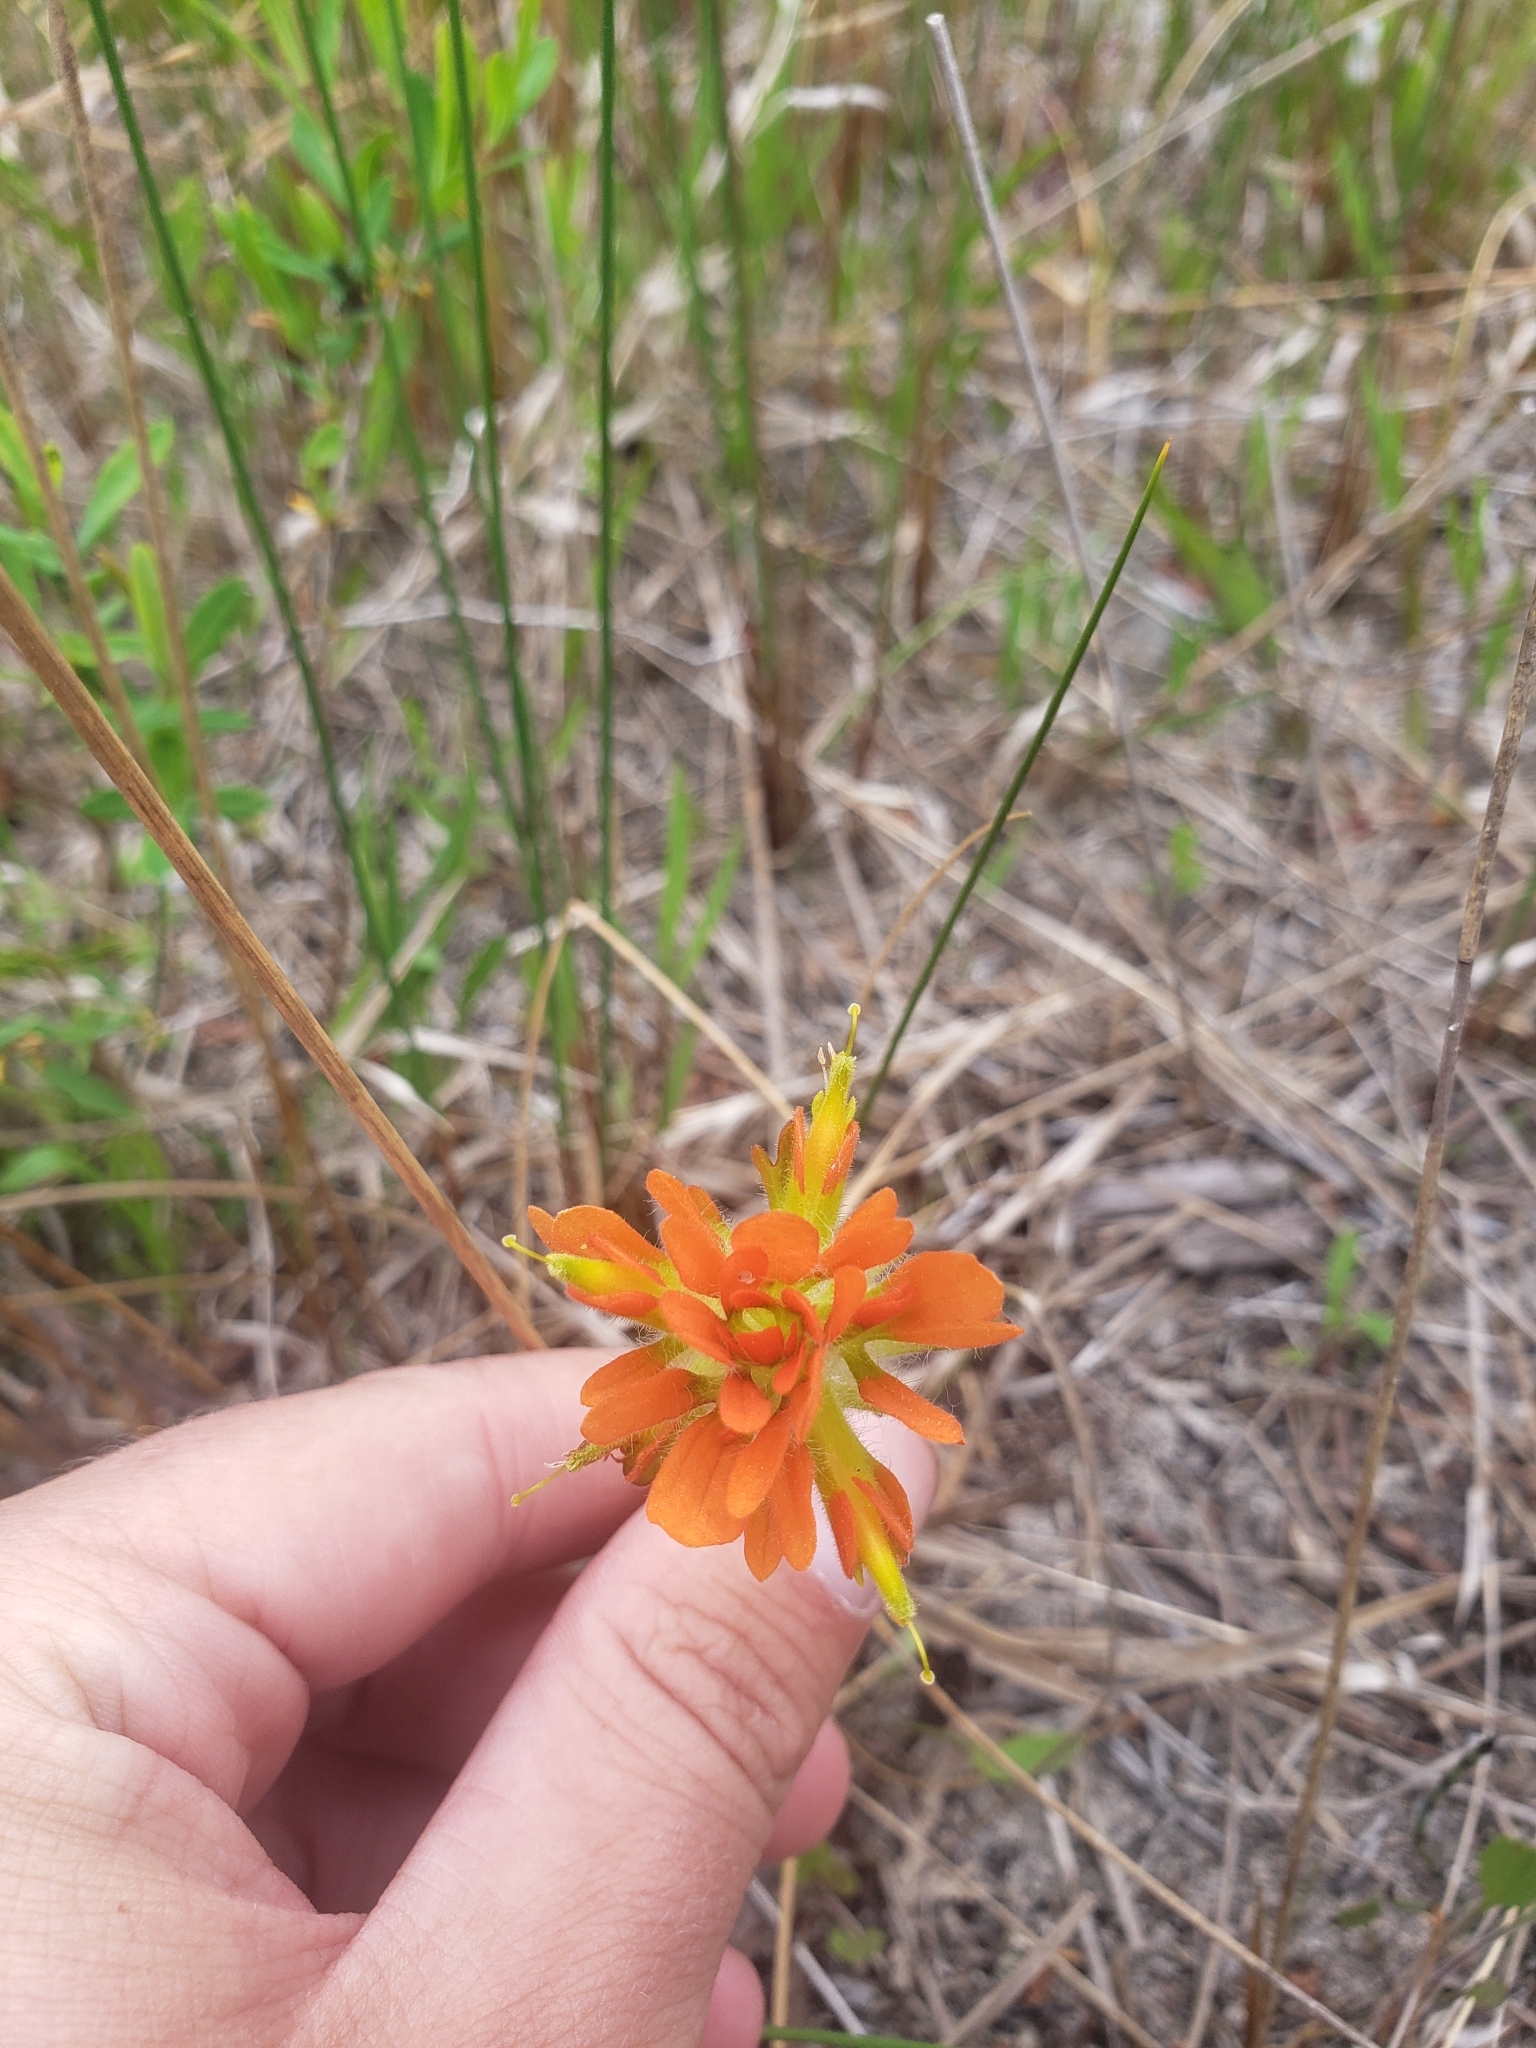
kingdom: Plantae
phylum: Tracheophyta
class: Magnoliopsida
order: Lamiales
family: Orobanchaceae
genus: Castilleja
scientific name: Castilleja coccinea
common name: Scarlet paintbrush
